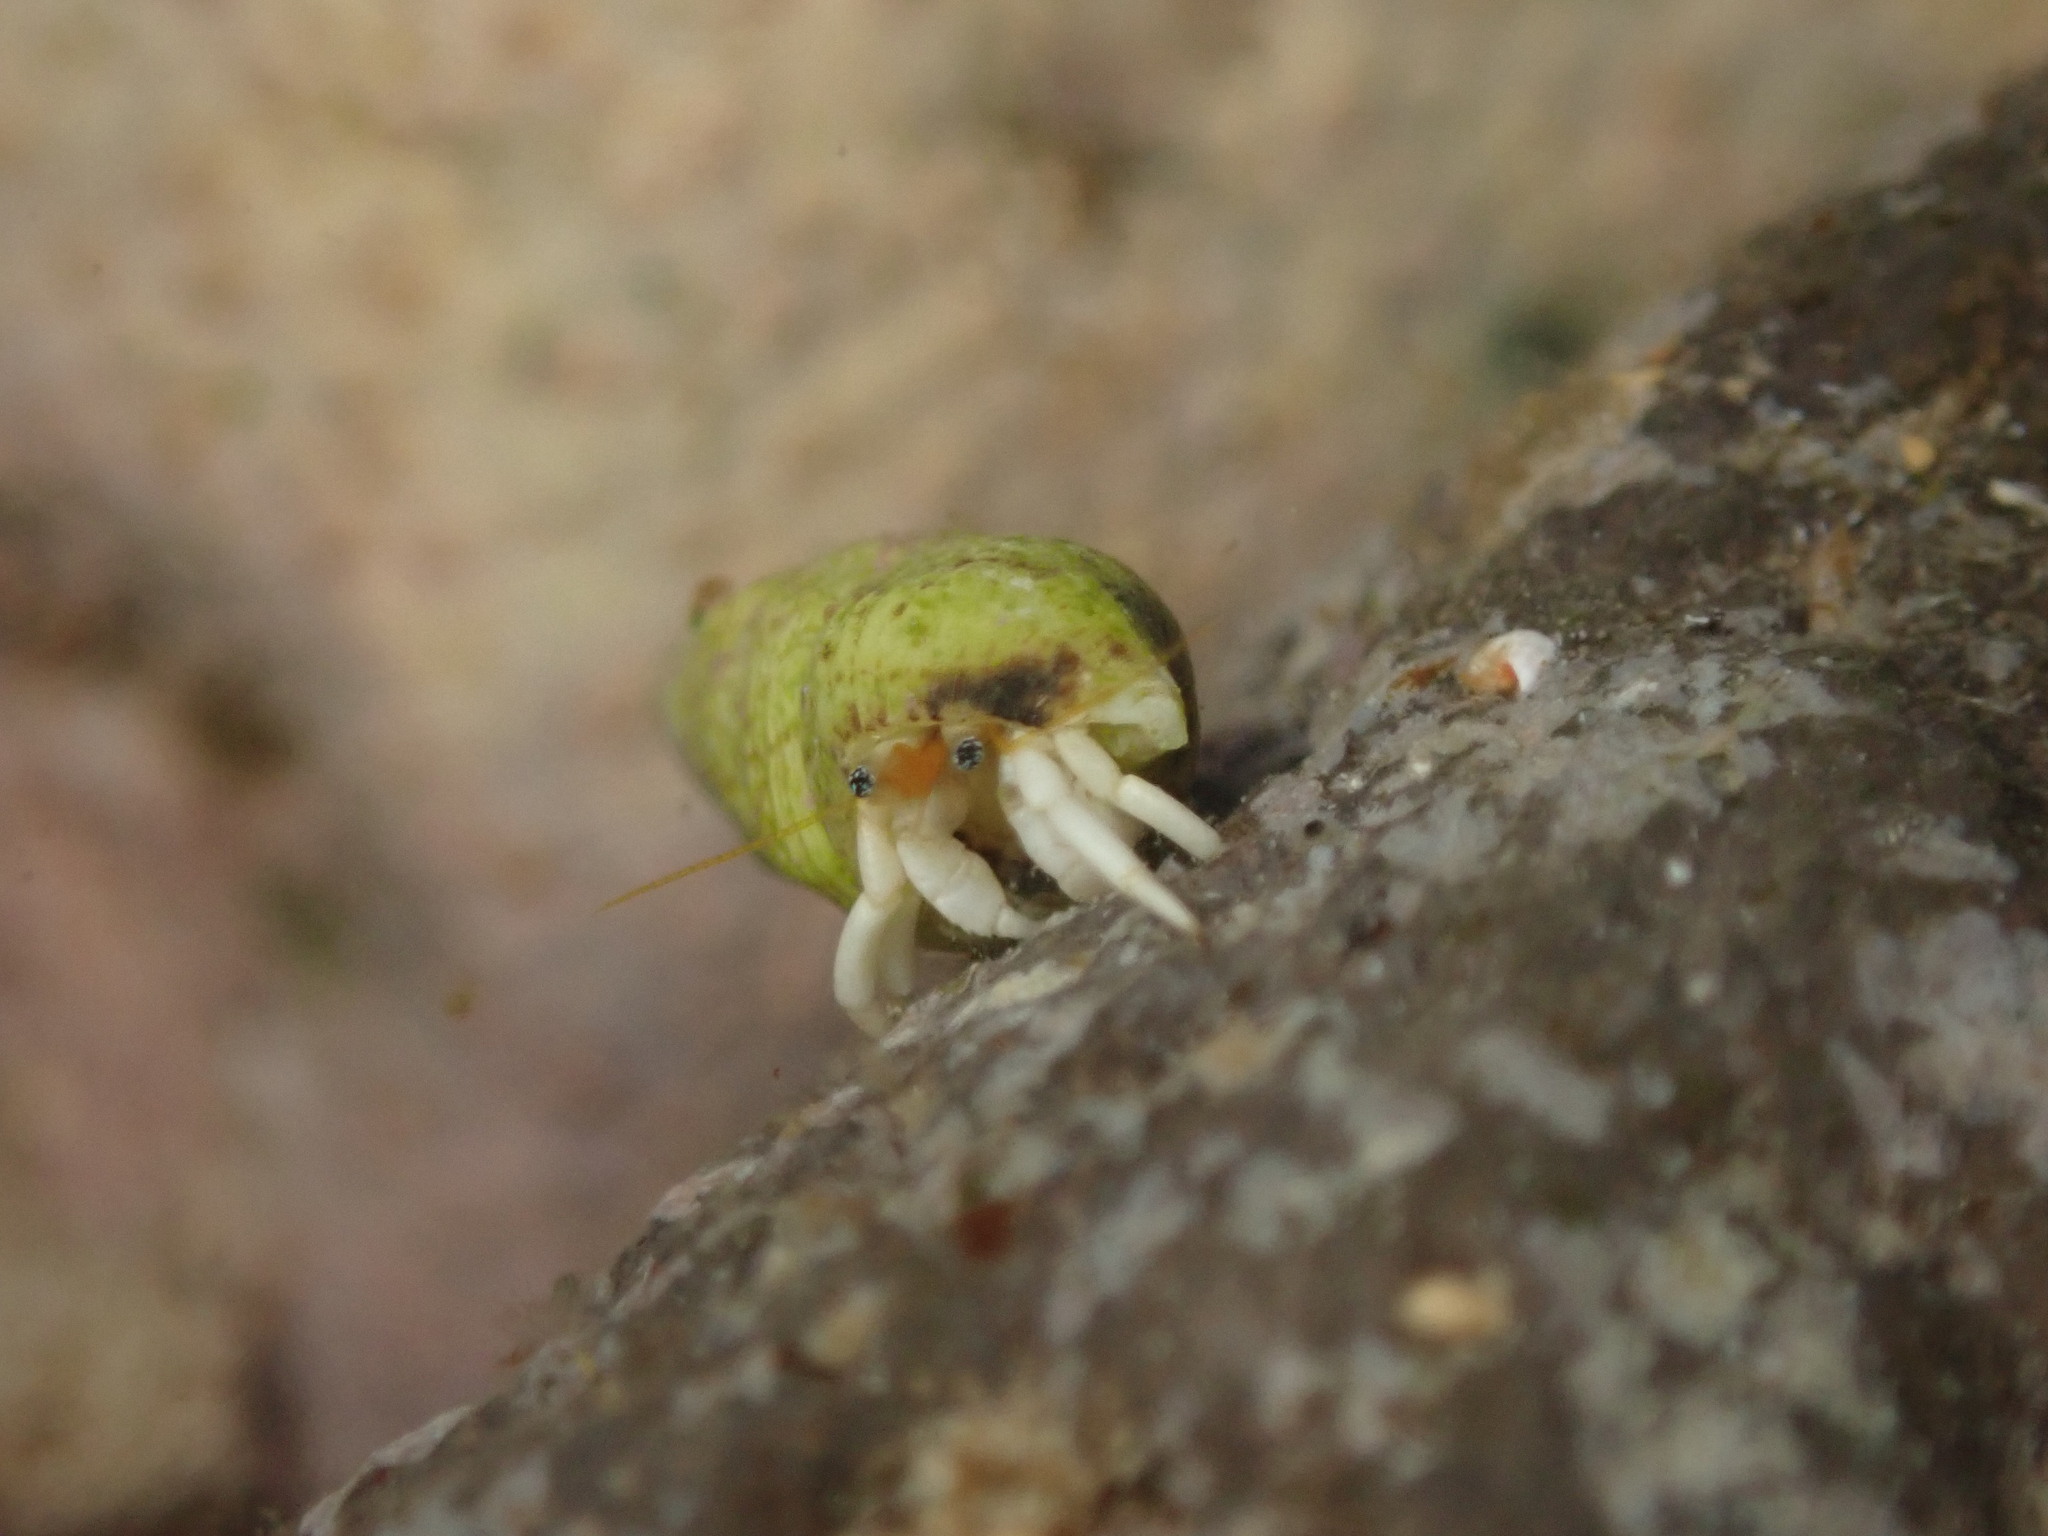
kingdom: Animalia
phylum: Arthropoda
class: Malacostraca
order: Decapoda
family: Diogenidae
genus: Calcinus
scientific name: Calcinus revi
